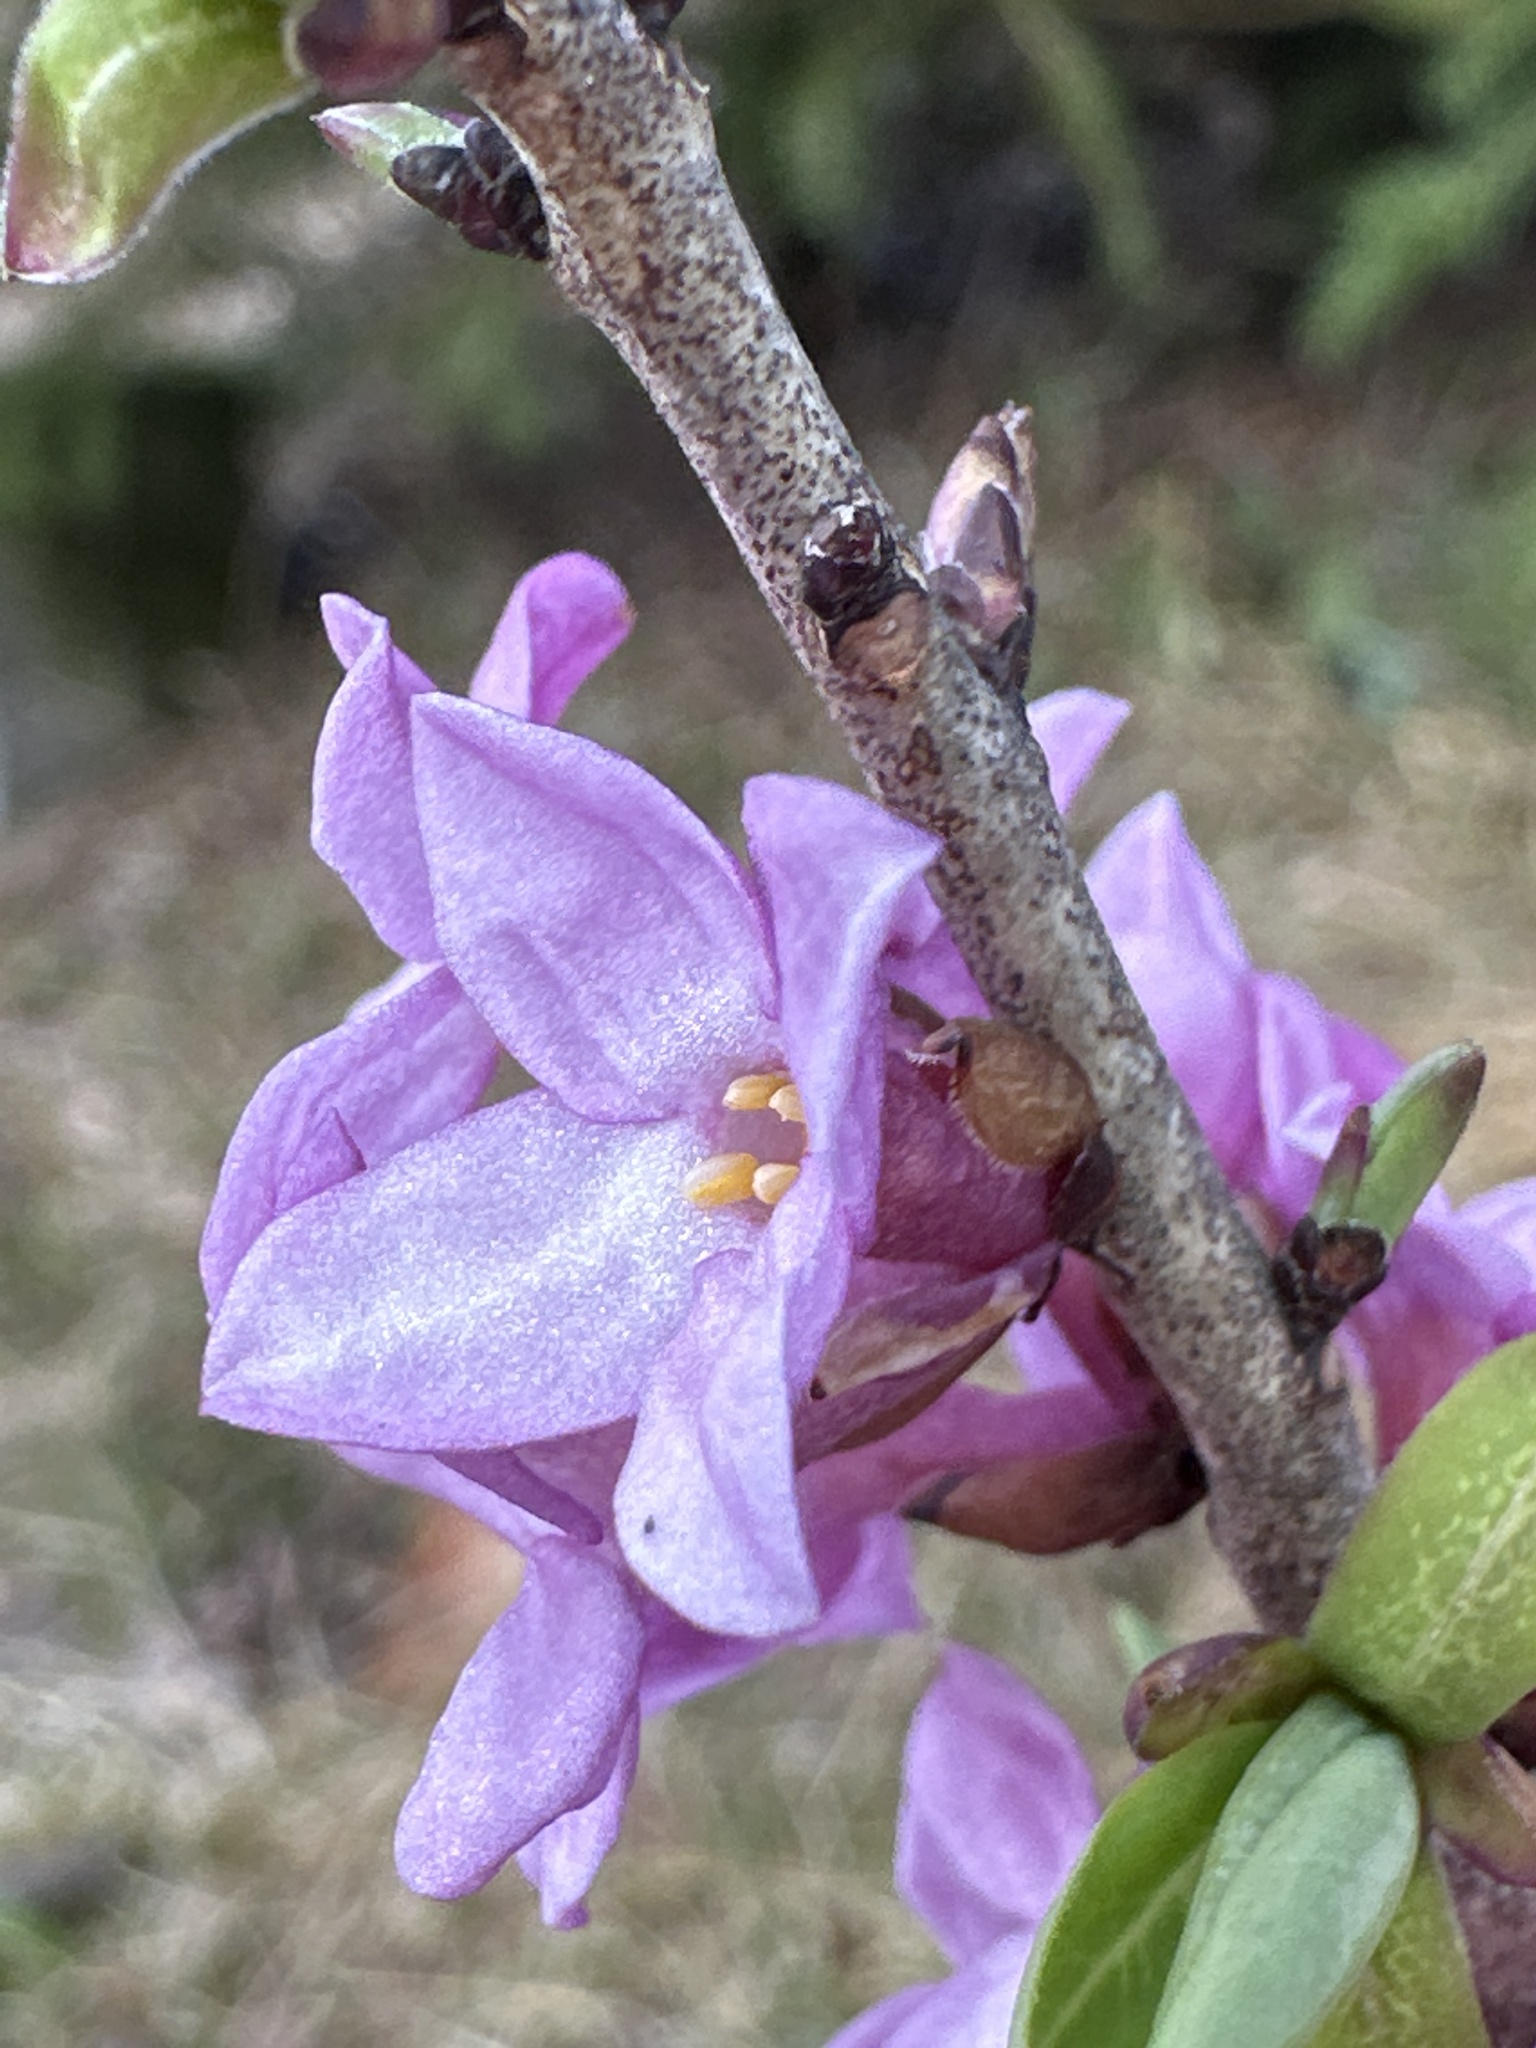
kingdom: Plantae
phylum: Tracheophyta
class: Magnoliopsida
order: Malvales
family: Thymelaeaceae
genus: Daphne
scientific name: Daphne mezereum
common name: Mezereon
